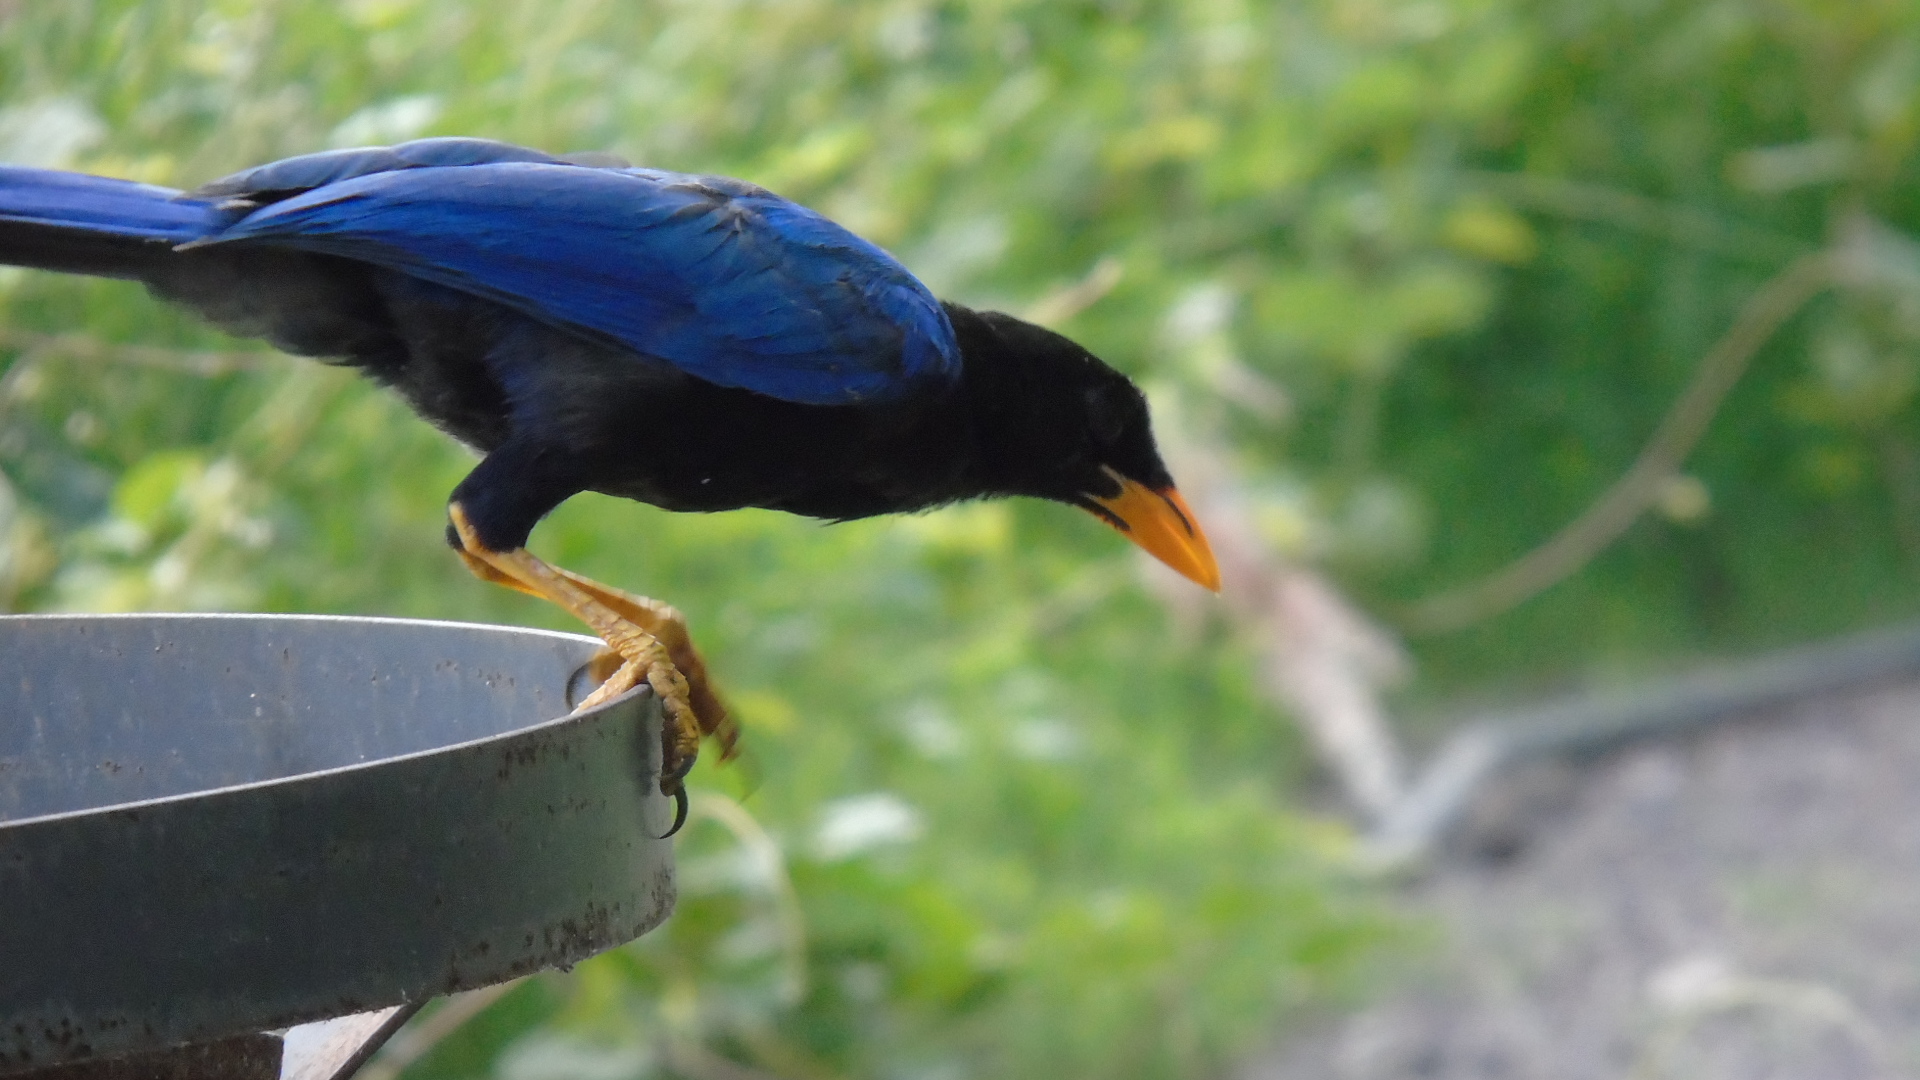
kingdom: Animalia
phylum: Chordata
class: Aves
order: Passeriformes
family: Corvidae
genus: Cyanocorax
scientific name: Cyanocorax beecheii
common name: Purplish-backed jay
